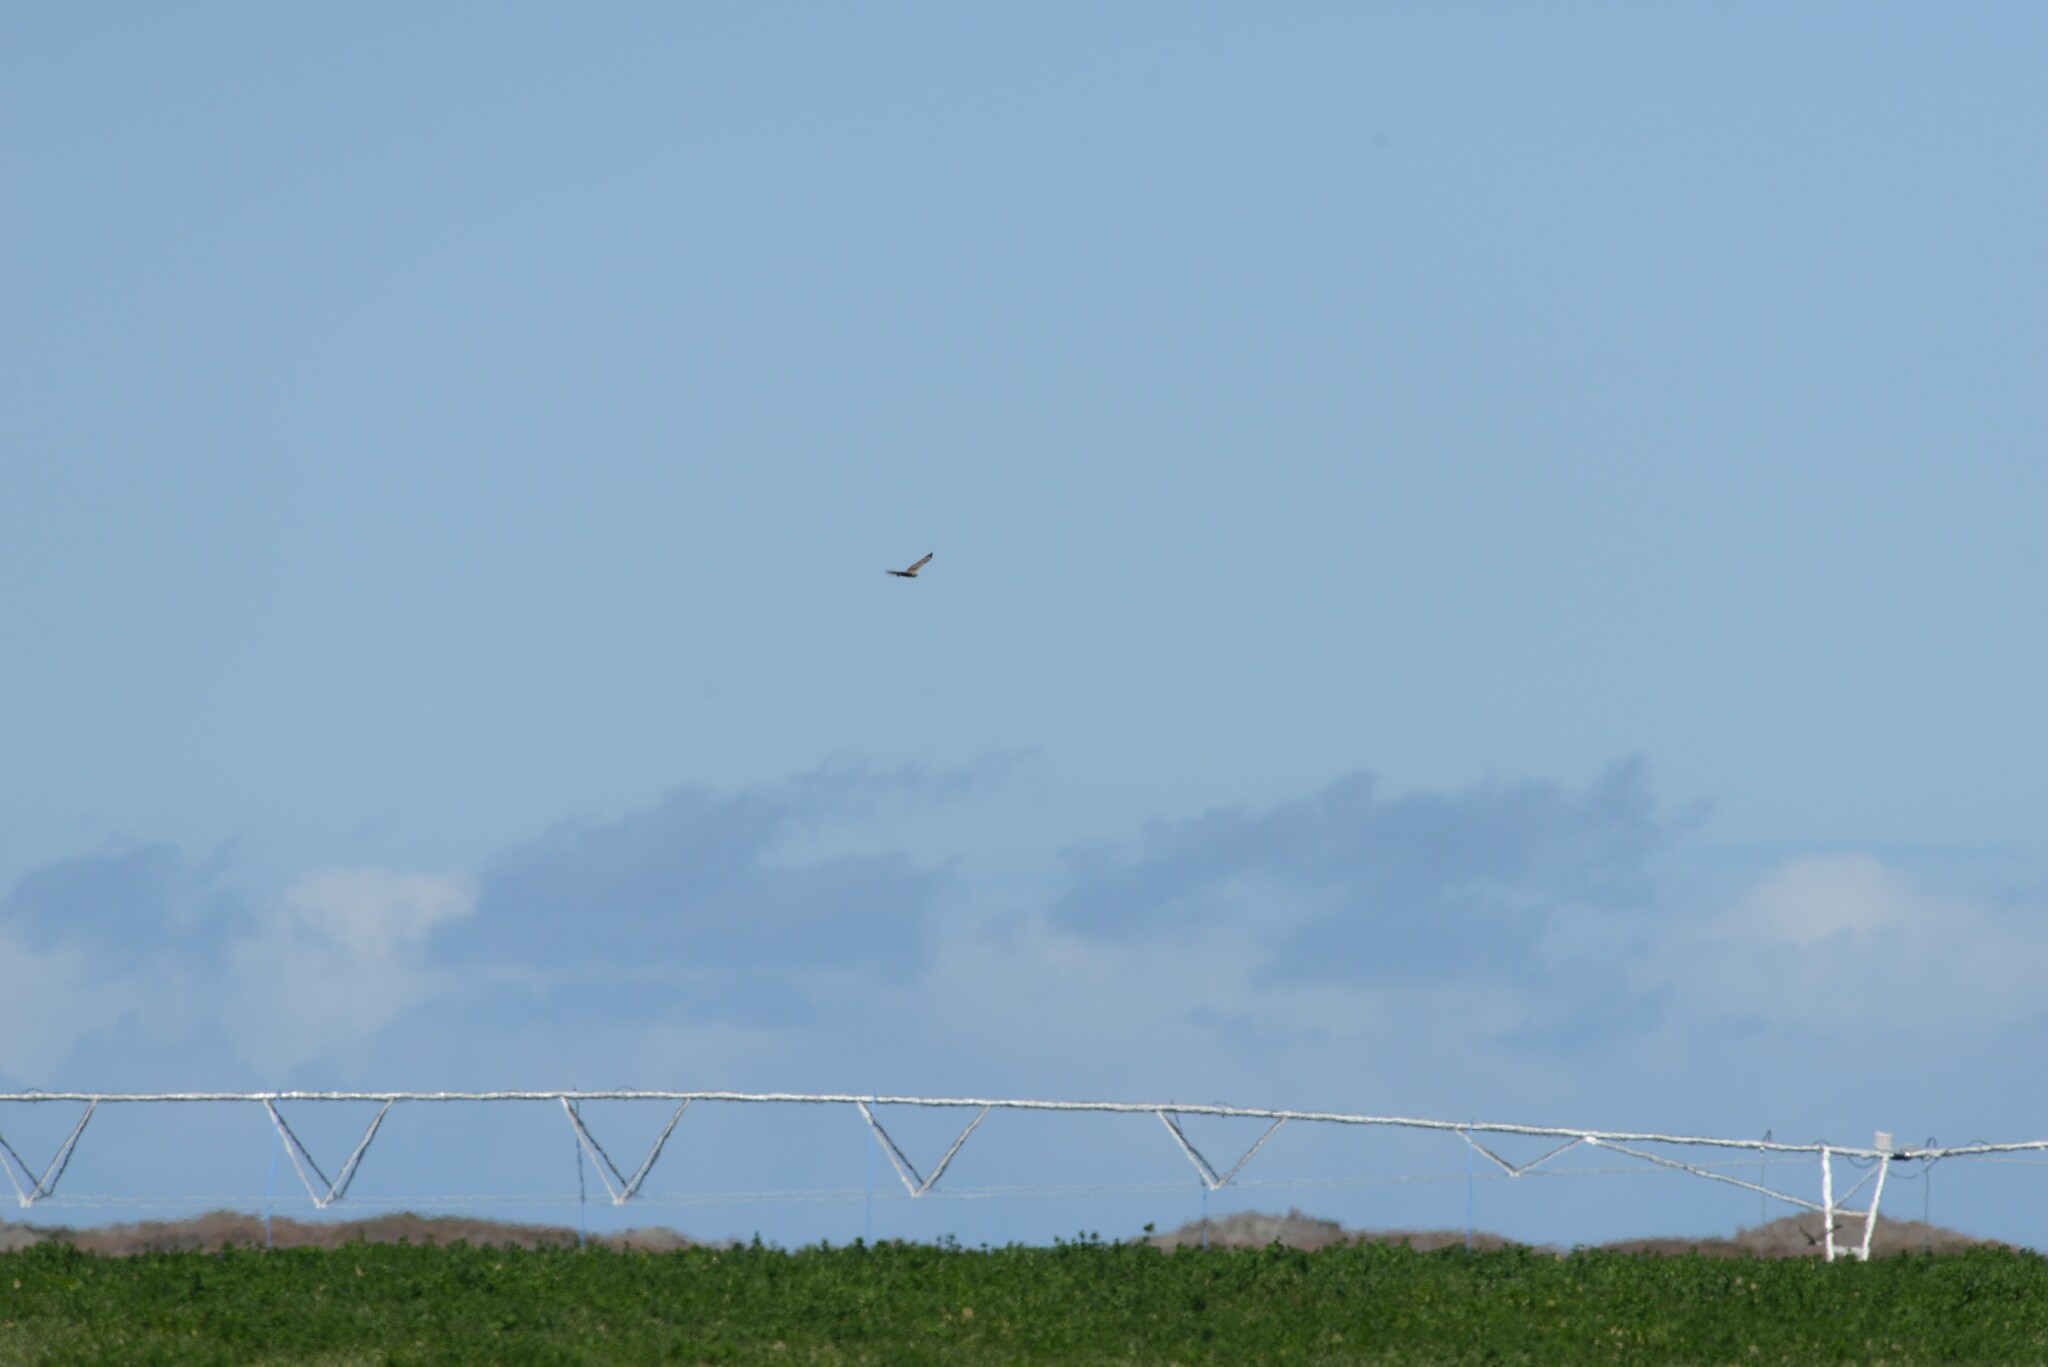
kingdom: Animalia
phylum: Chordata
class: Aves
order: Accipitriformes
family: Accipitridae
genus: Circus
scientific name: Circus approximans
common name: Swamp harrier
